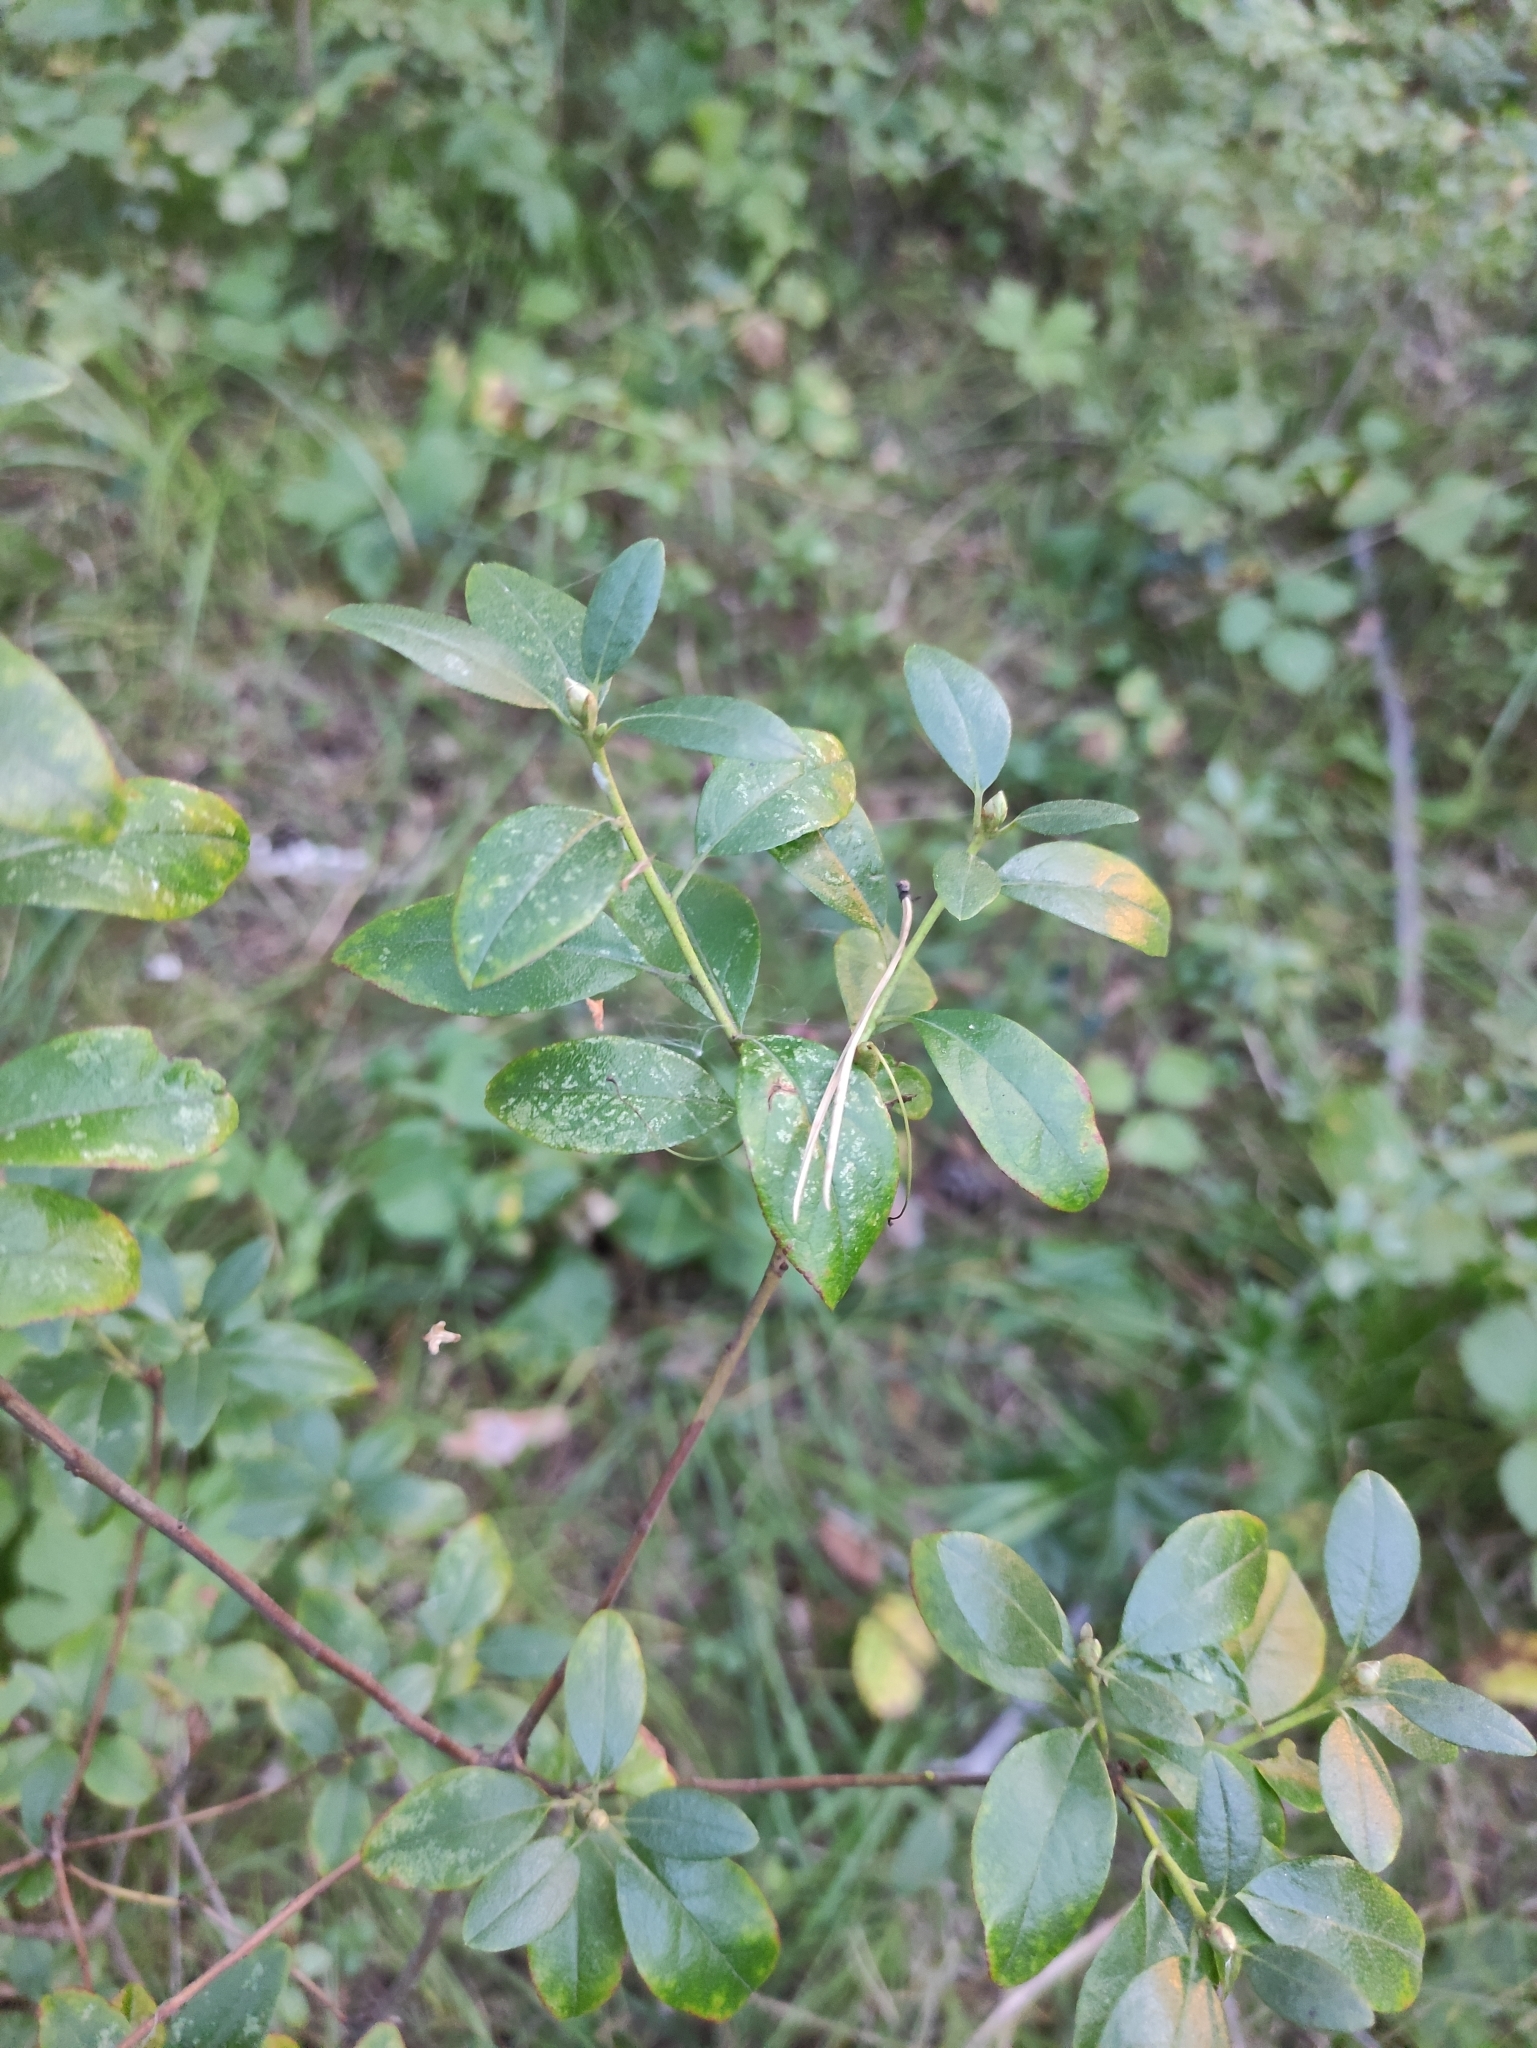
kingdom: Plantae
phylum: Tracheophyta
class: Magnoliopsida
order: Ericales
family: Ericaceae
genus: Rhododendron
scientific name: Rhododendron dauricum
